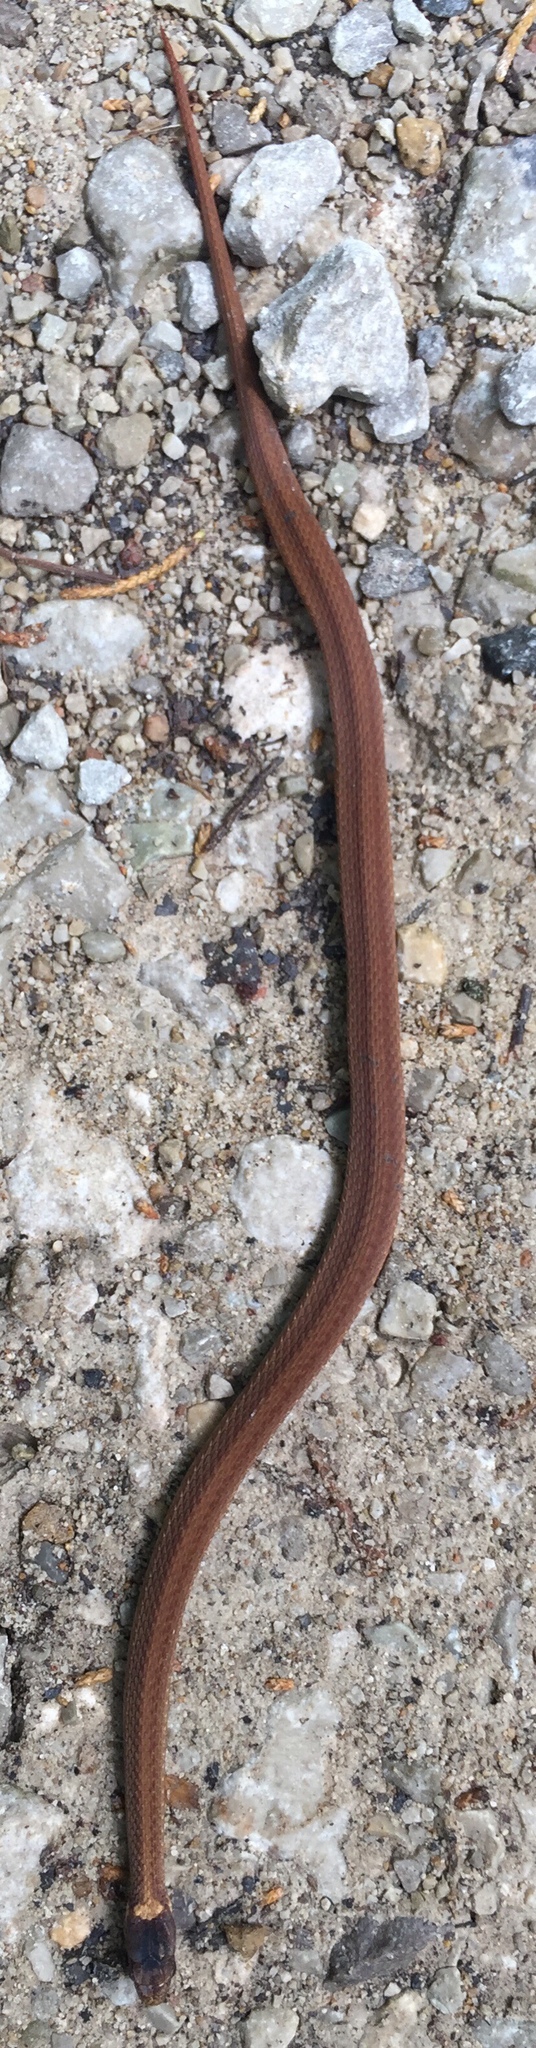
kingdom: Animalia
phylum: Chordata
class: Squamata
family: Colubridae
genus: Storeria
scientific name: Storeria occipitomaculata
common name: Redbelly snake
